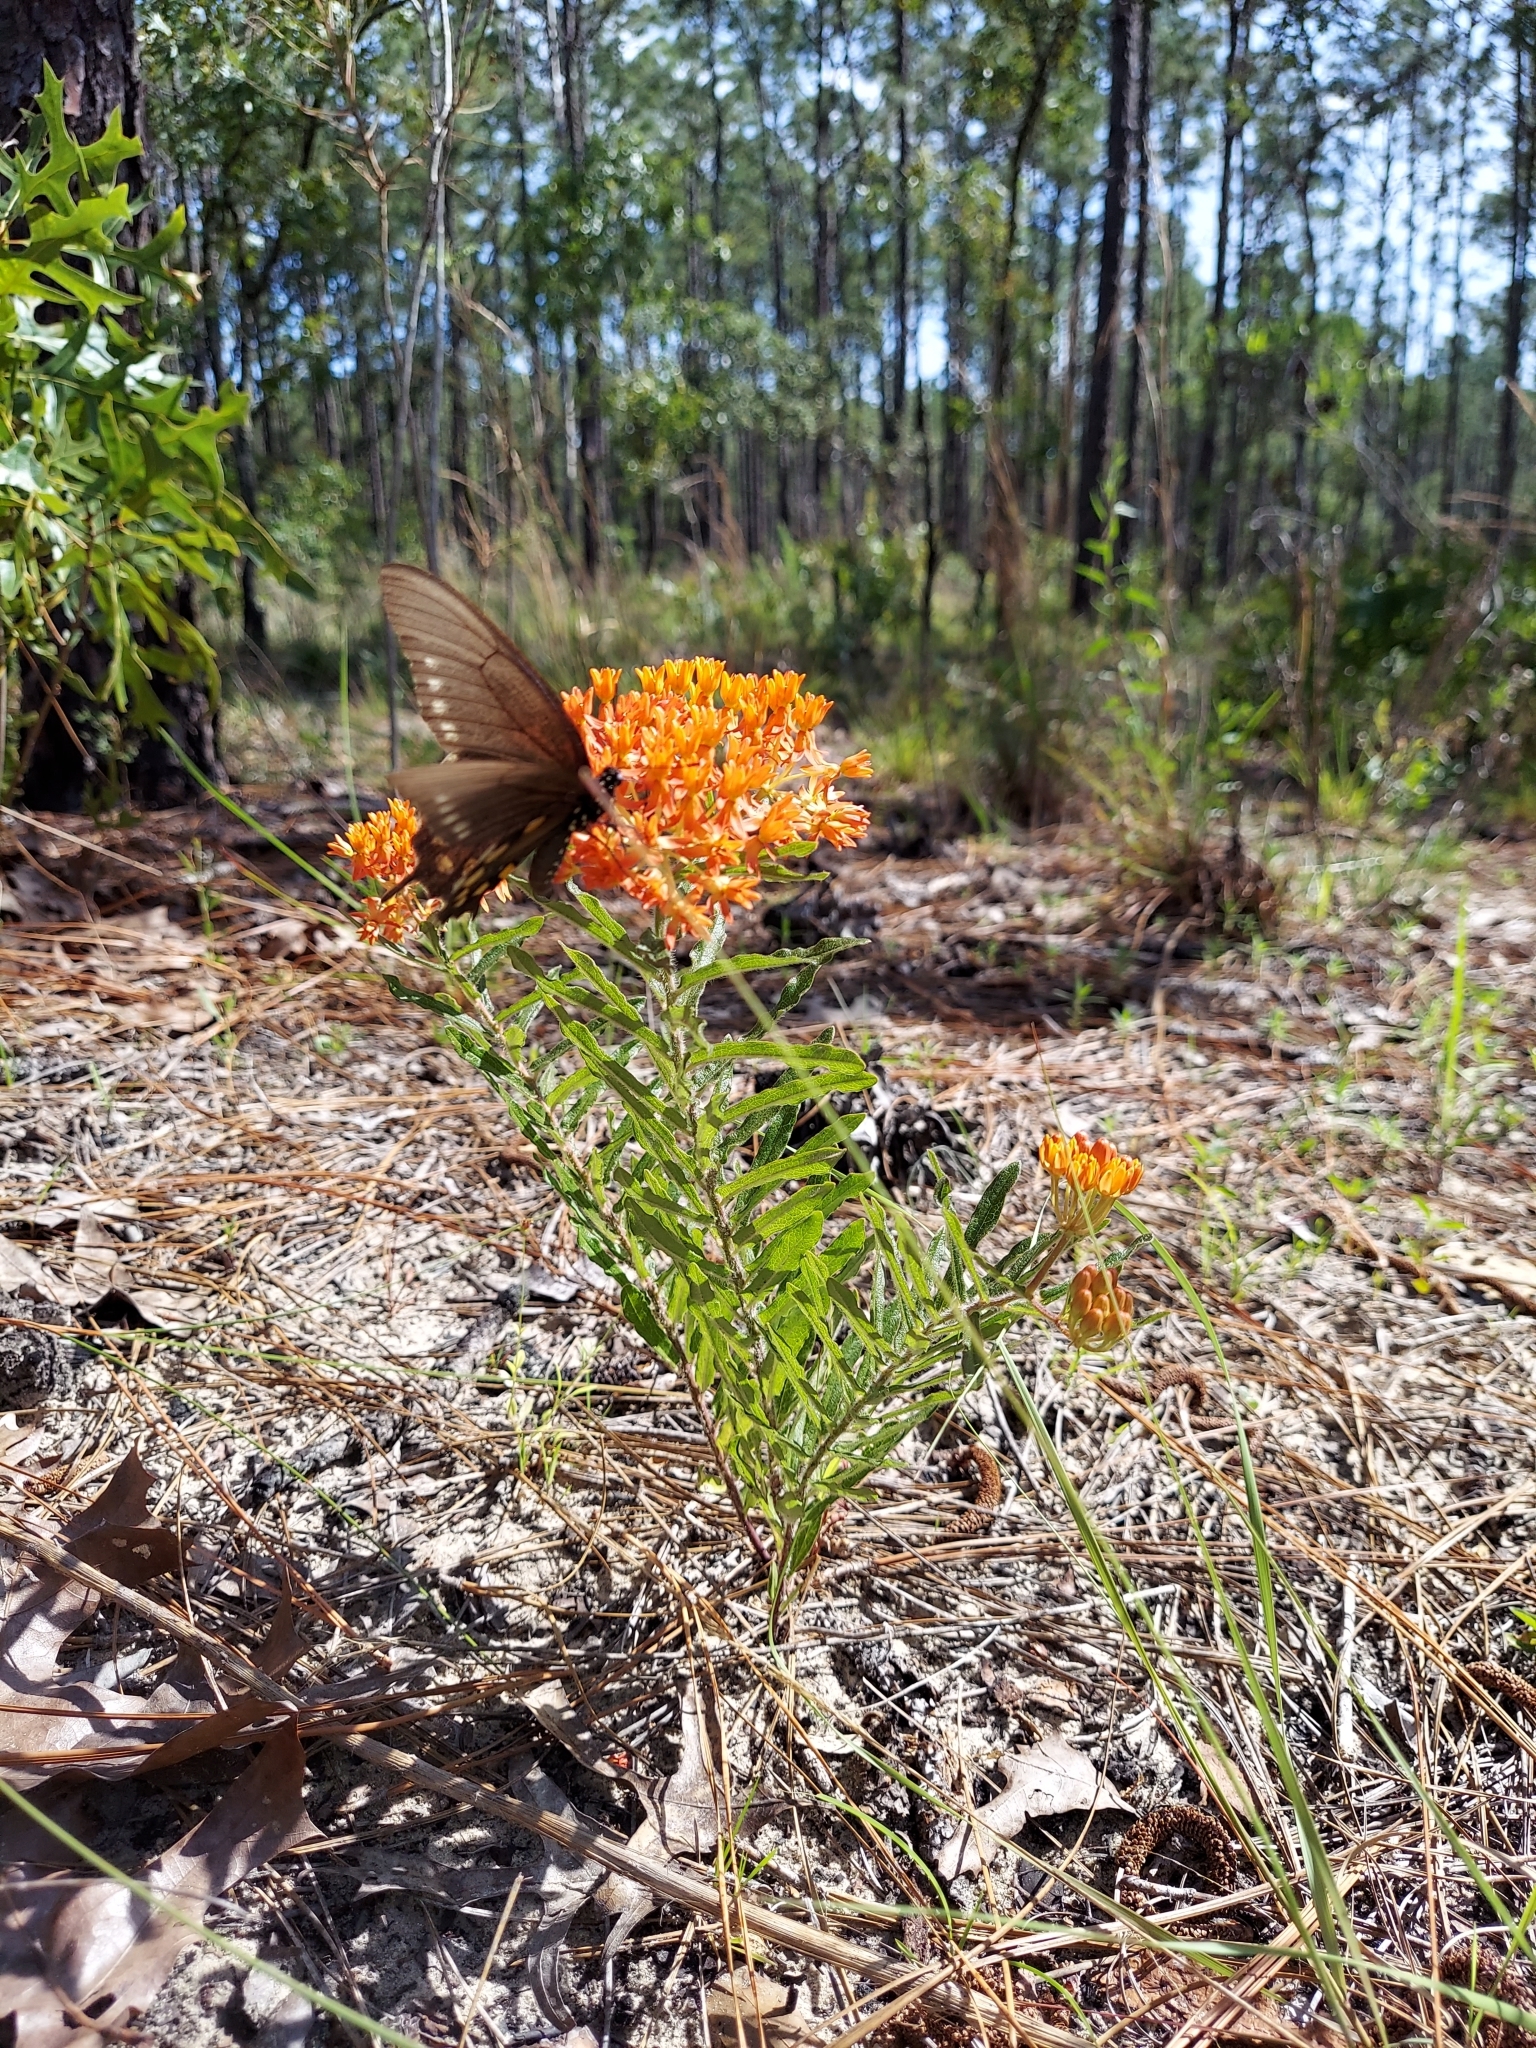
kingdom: Plantae
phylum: Tracheophyta
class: Magnoliopsida
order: Gentianales
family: Apocynaceae
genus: Asclepias
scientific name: Asclepias tuberosa
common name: Butterfly milkweed
